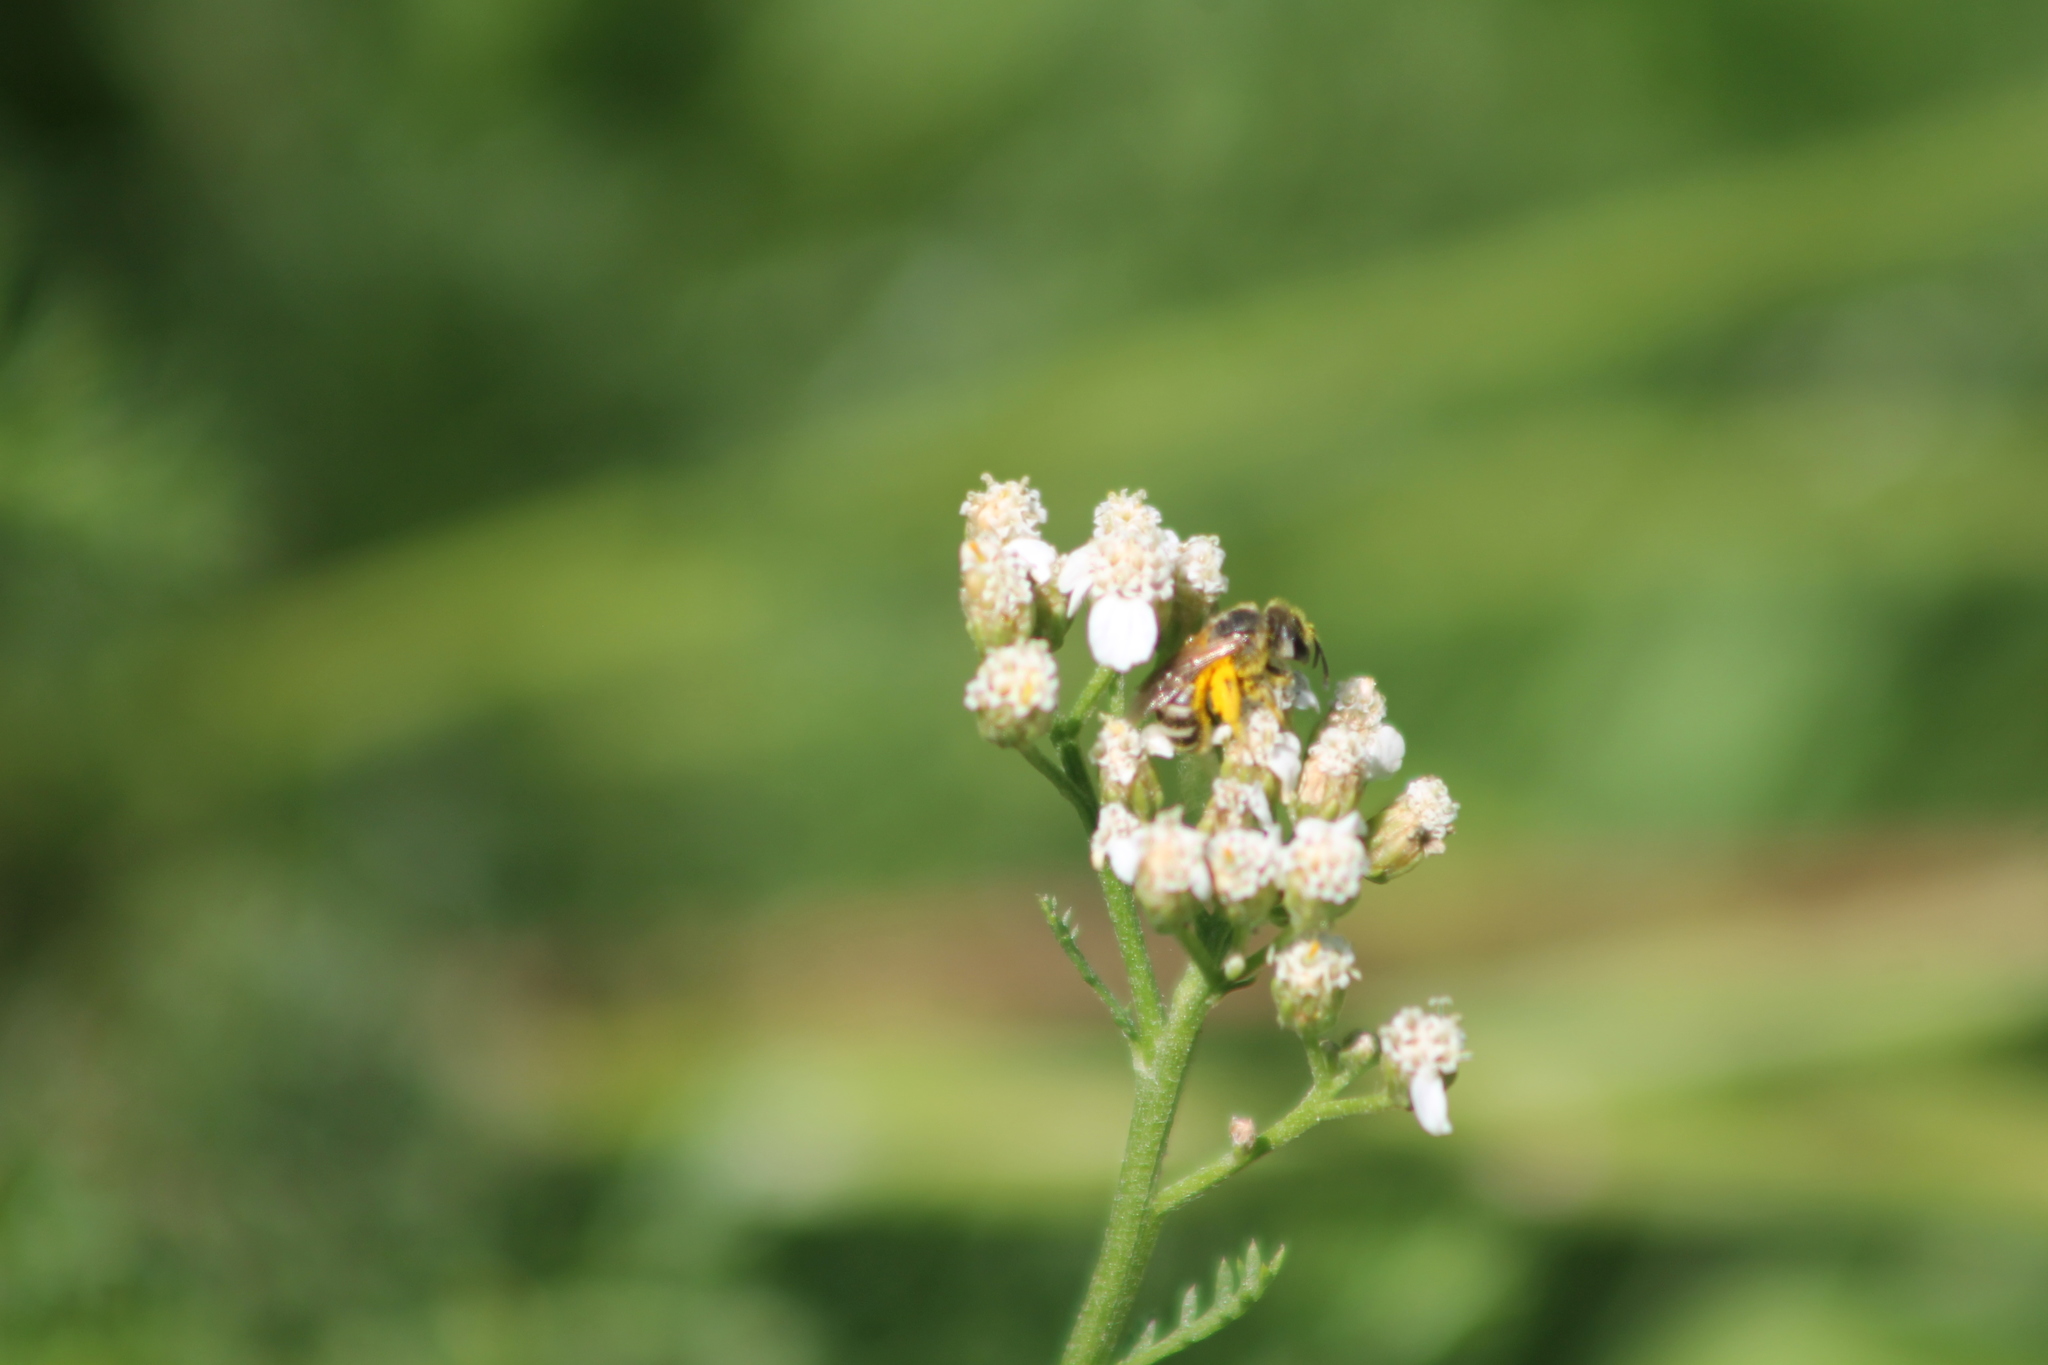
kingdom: Animalia
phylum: Arthropoda
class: Insecta
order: Hymenoptera
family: Halictidae
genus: Halictus
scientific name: Halictus ligatus
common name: Ligated furrow bee
